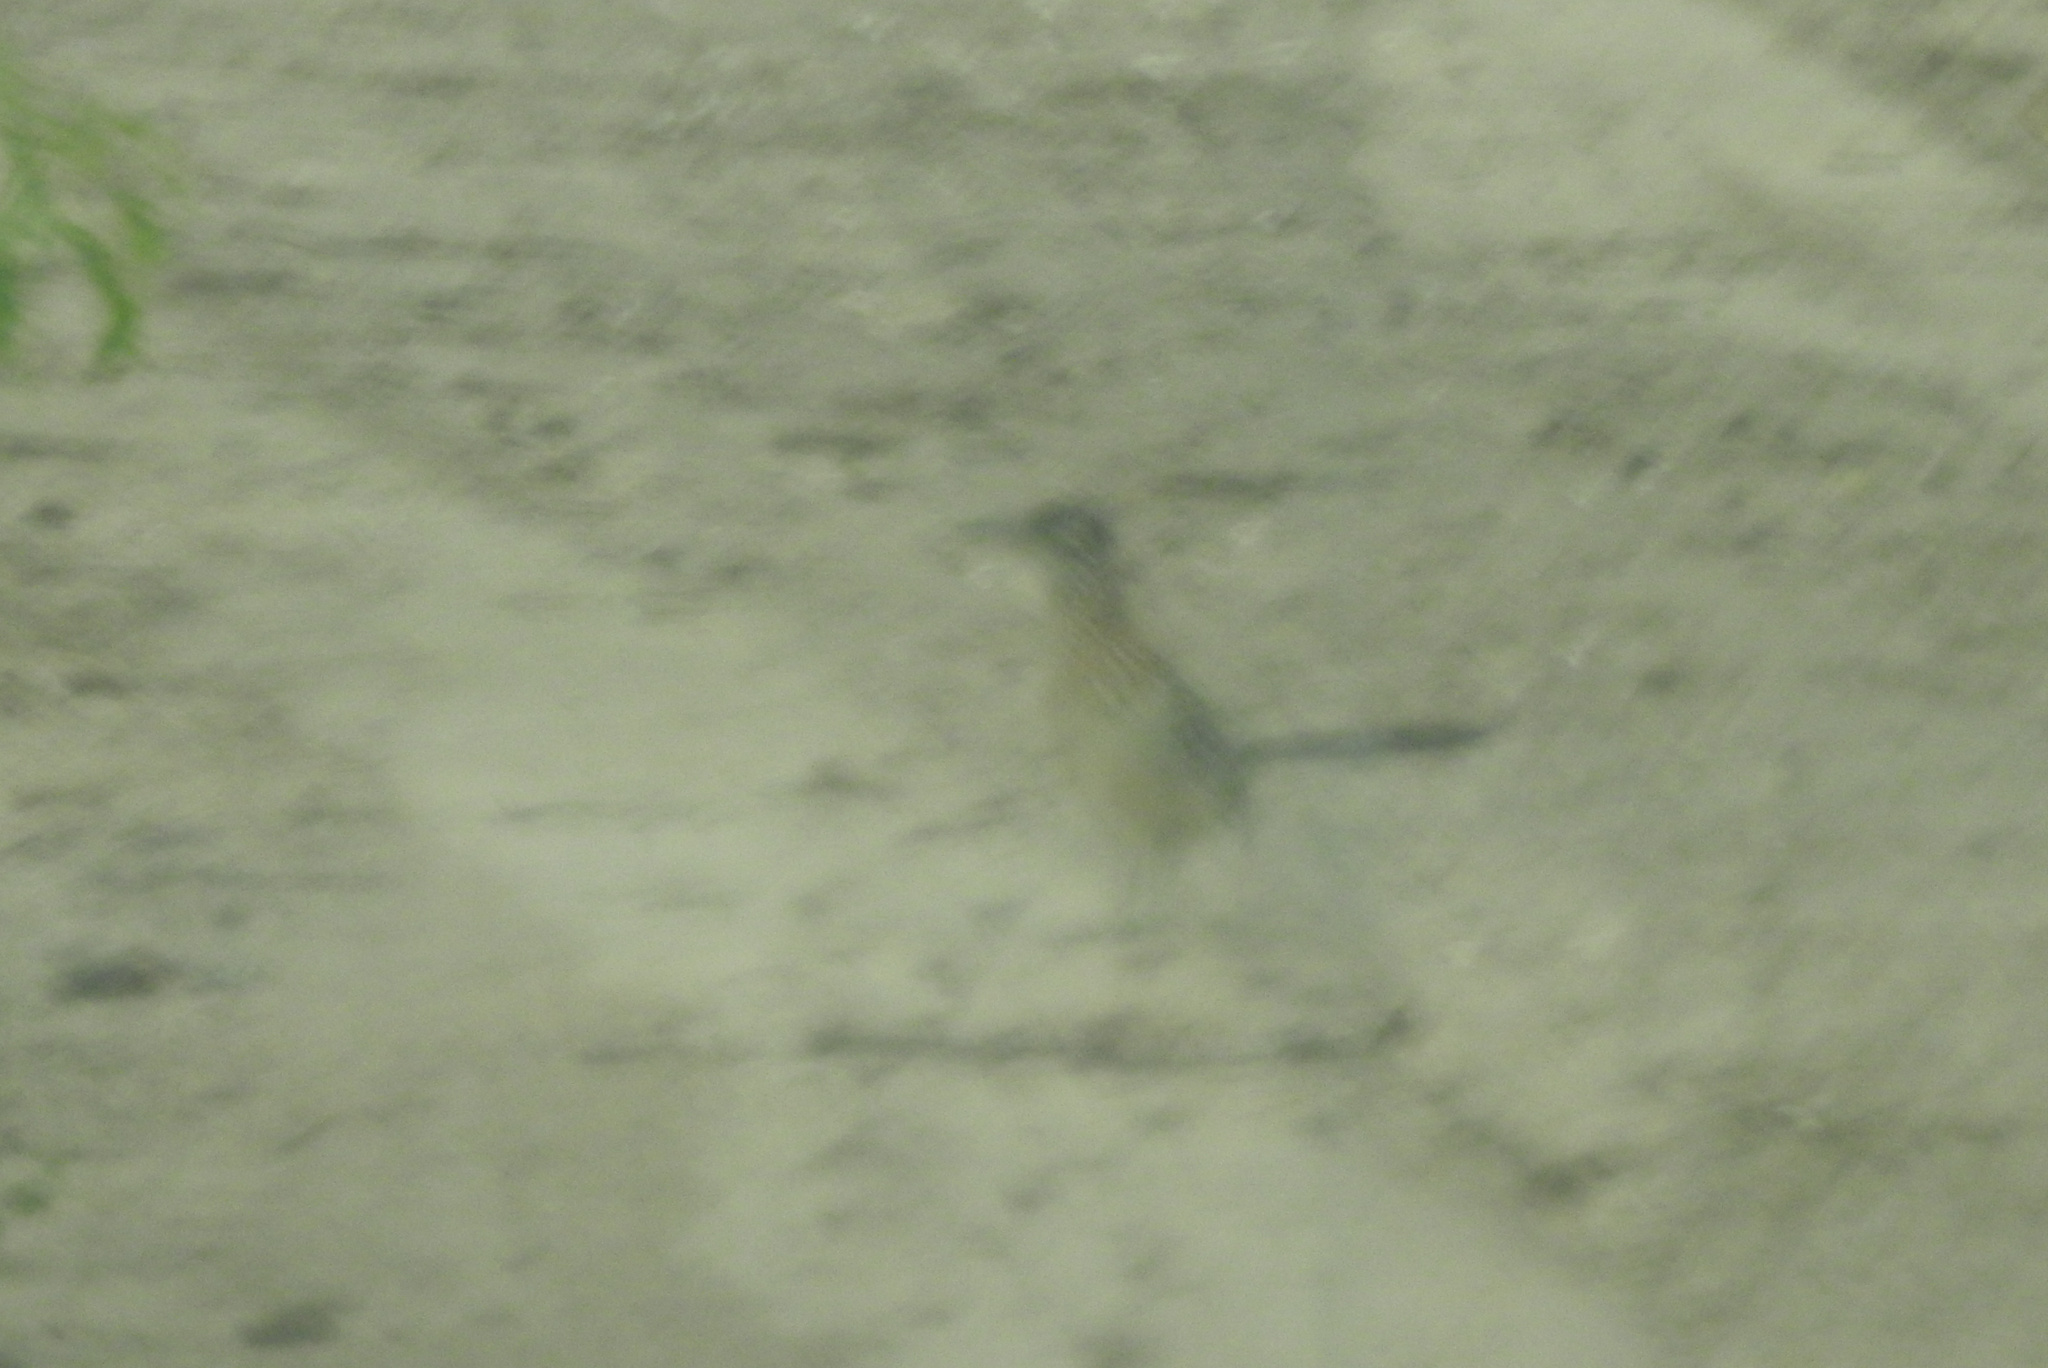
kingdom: Animalia
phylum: Chordata
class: Aves
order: Cuculiformes
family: Cuculidae
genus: Geococcyx
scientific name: Geococcyx californianus
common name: Greater roadrunner
